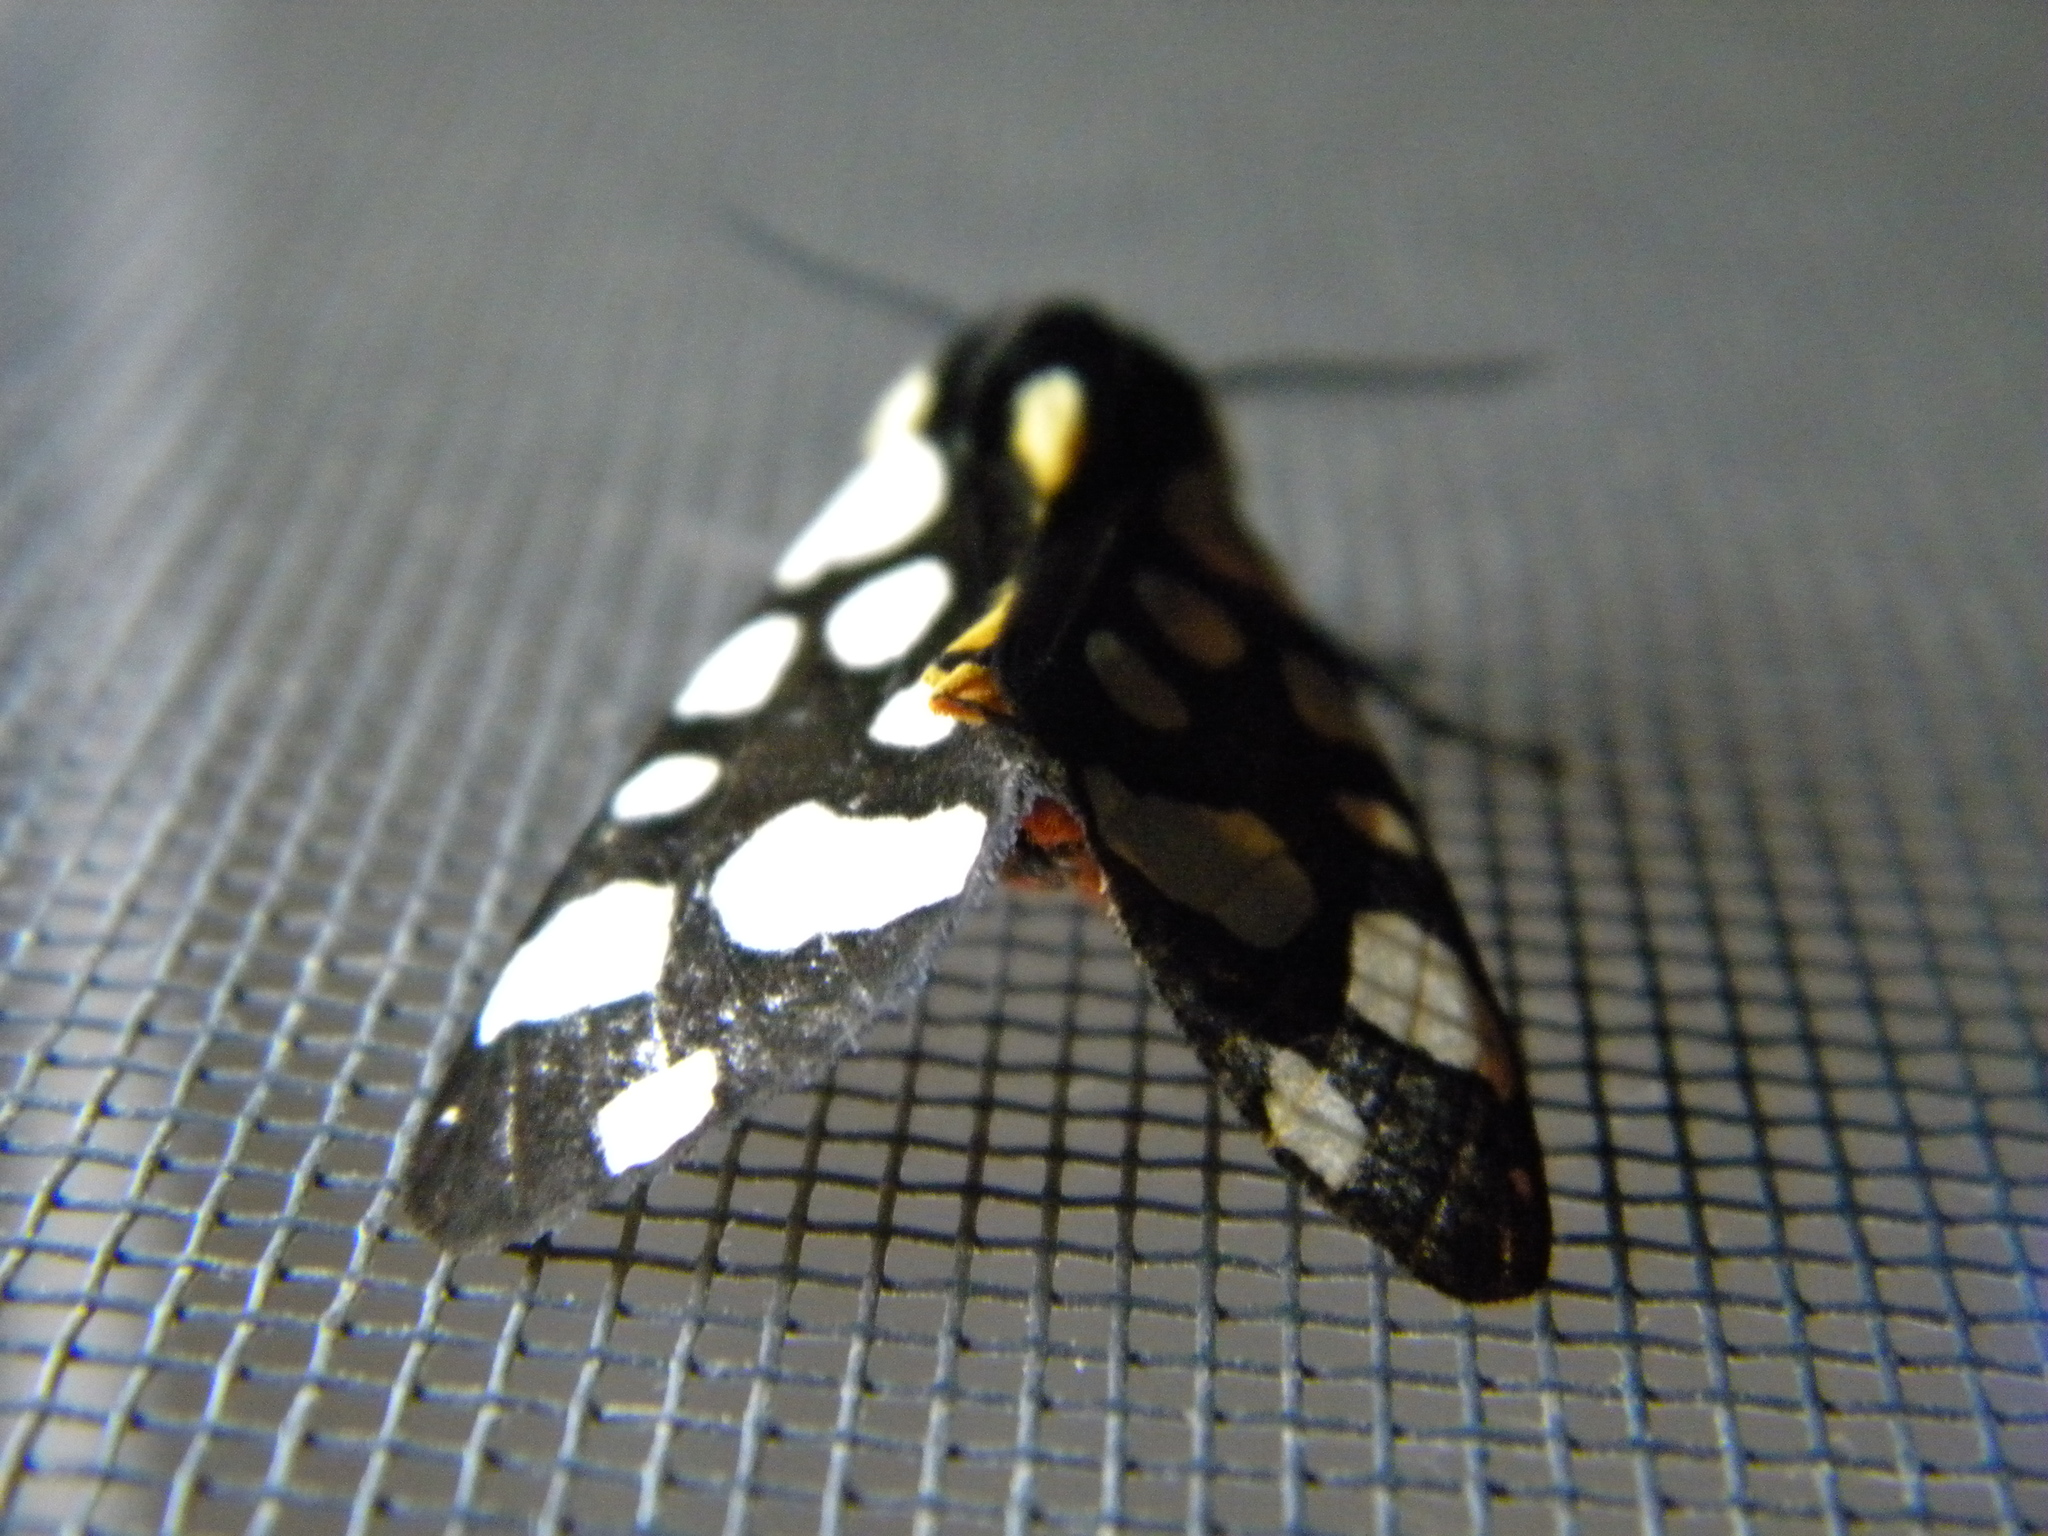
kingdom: Animalia
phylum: Arthropoda
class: Insecta
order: Lepidoptera
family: Erebidae
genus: Epicallia
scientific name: Epicallia villica
